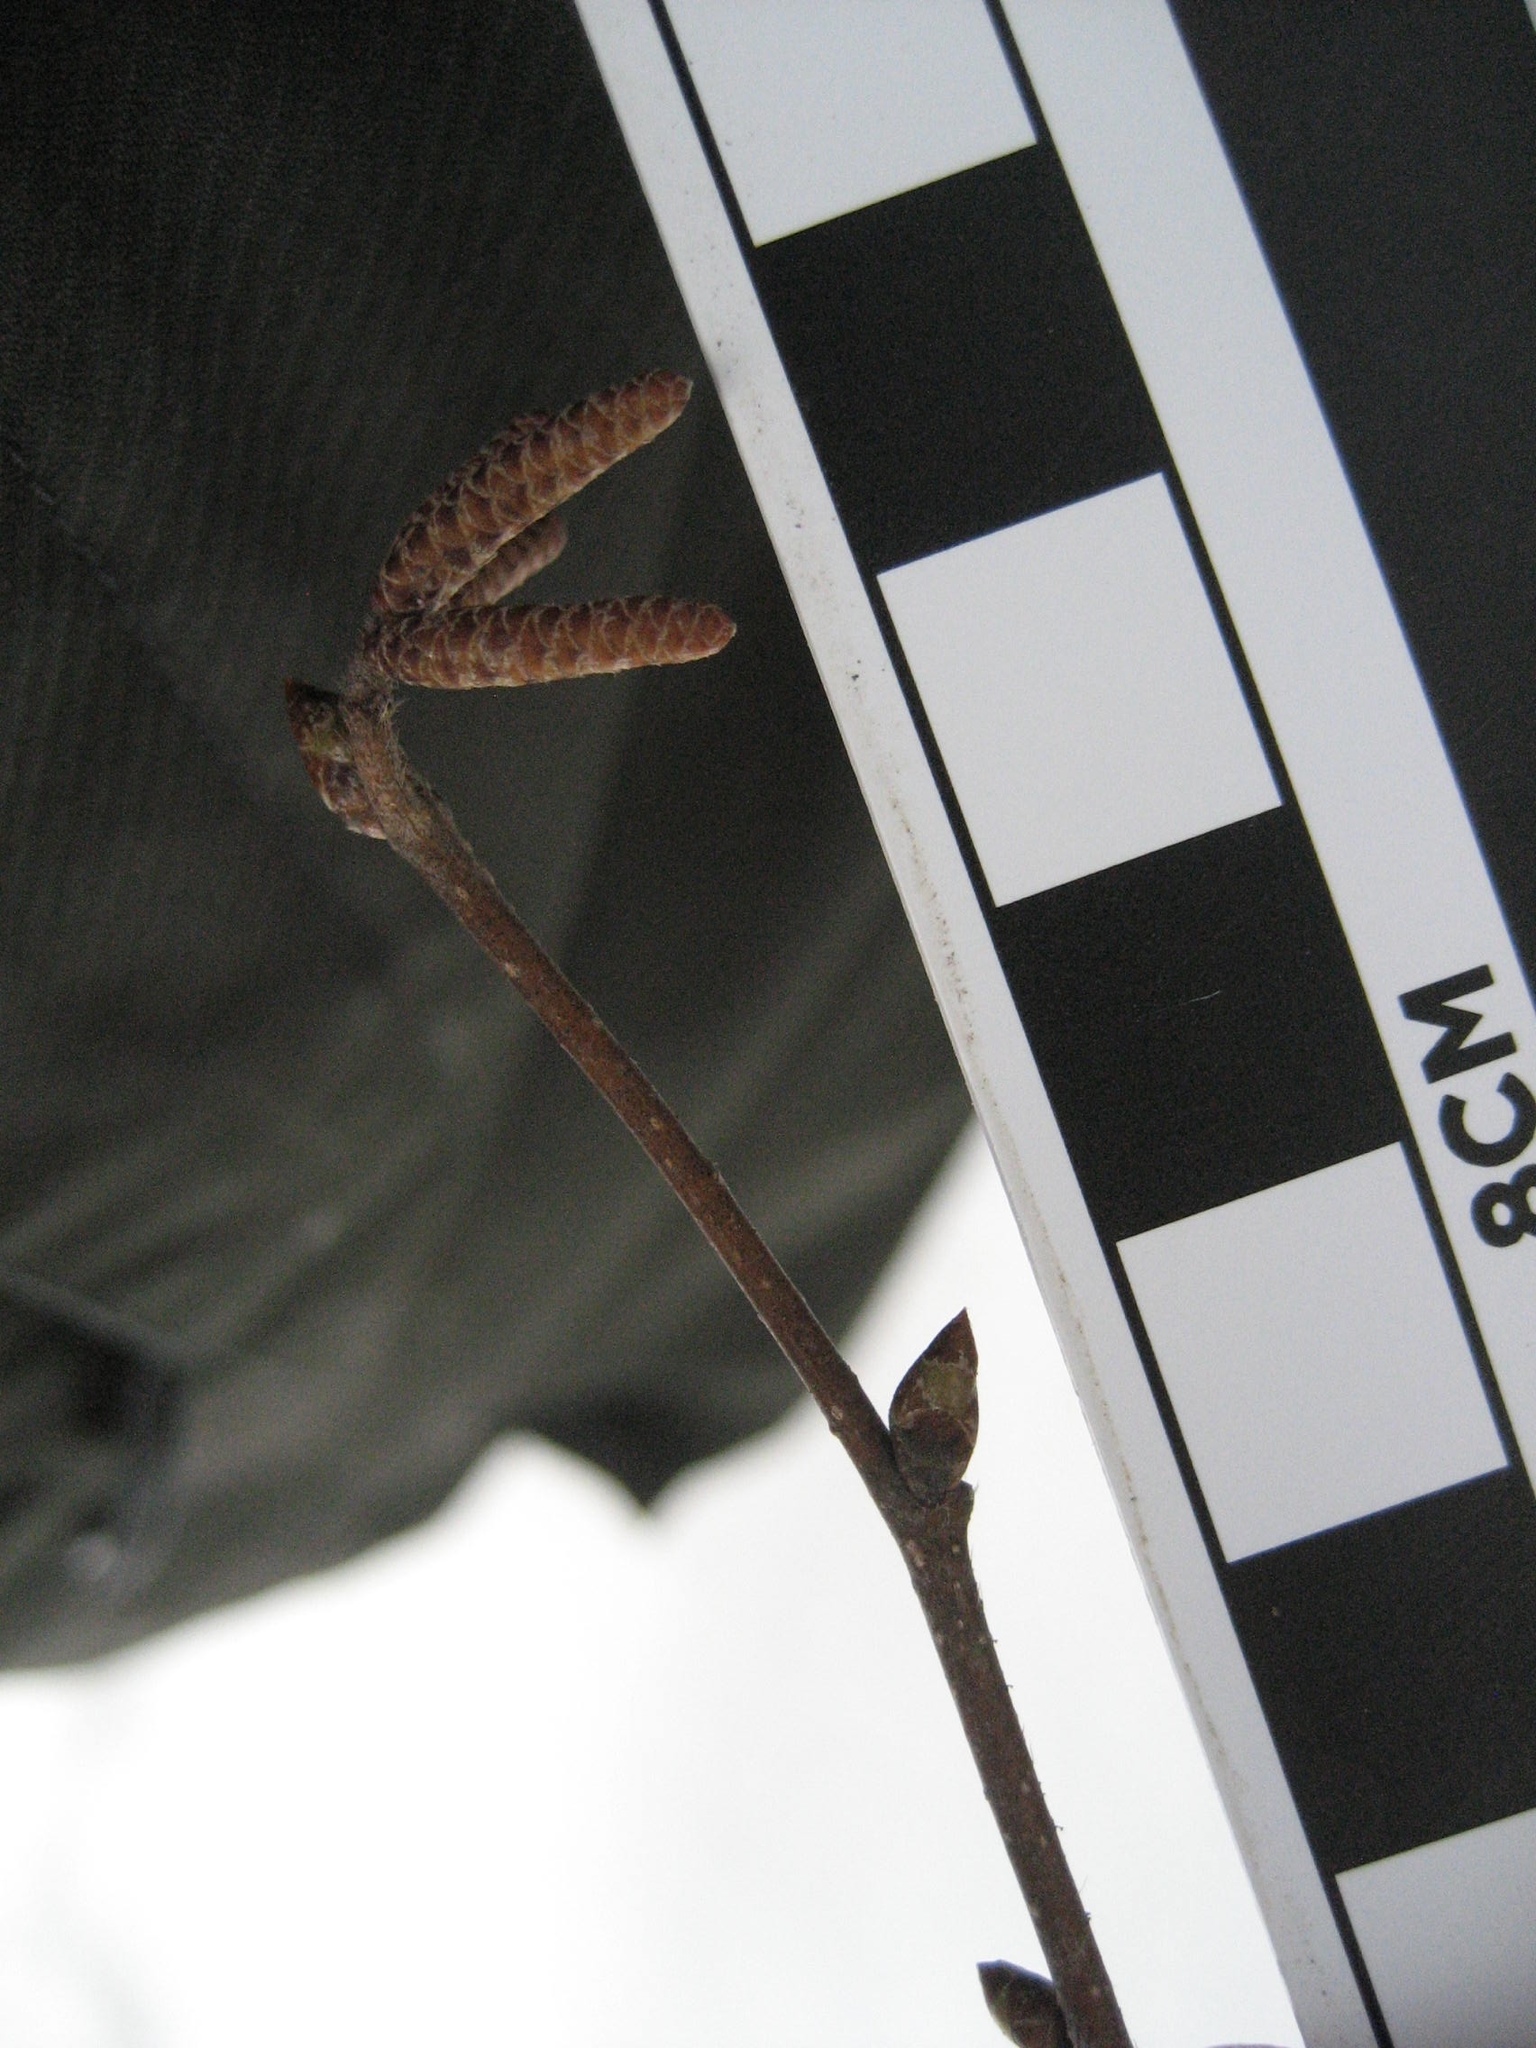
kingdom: Plantae
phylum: Tracheophyta
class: Magnoliopsida
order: Fagales
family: Betulaceae
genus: Ostrya
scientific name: Ostrya virginiana
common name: Ironwood
